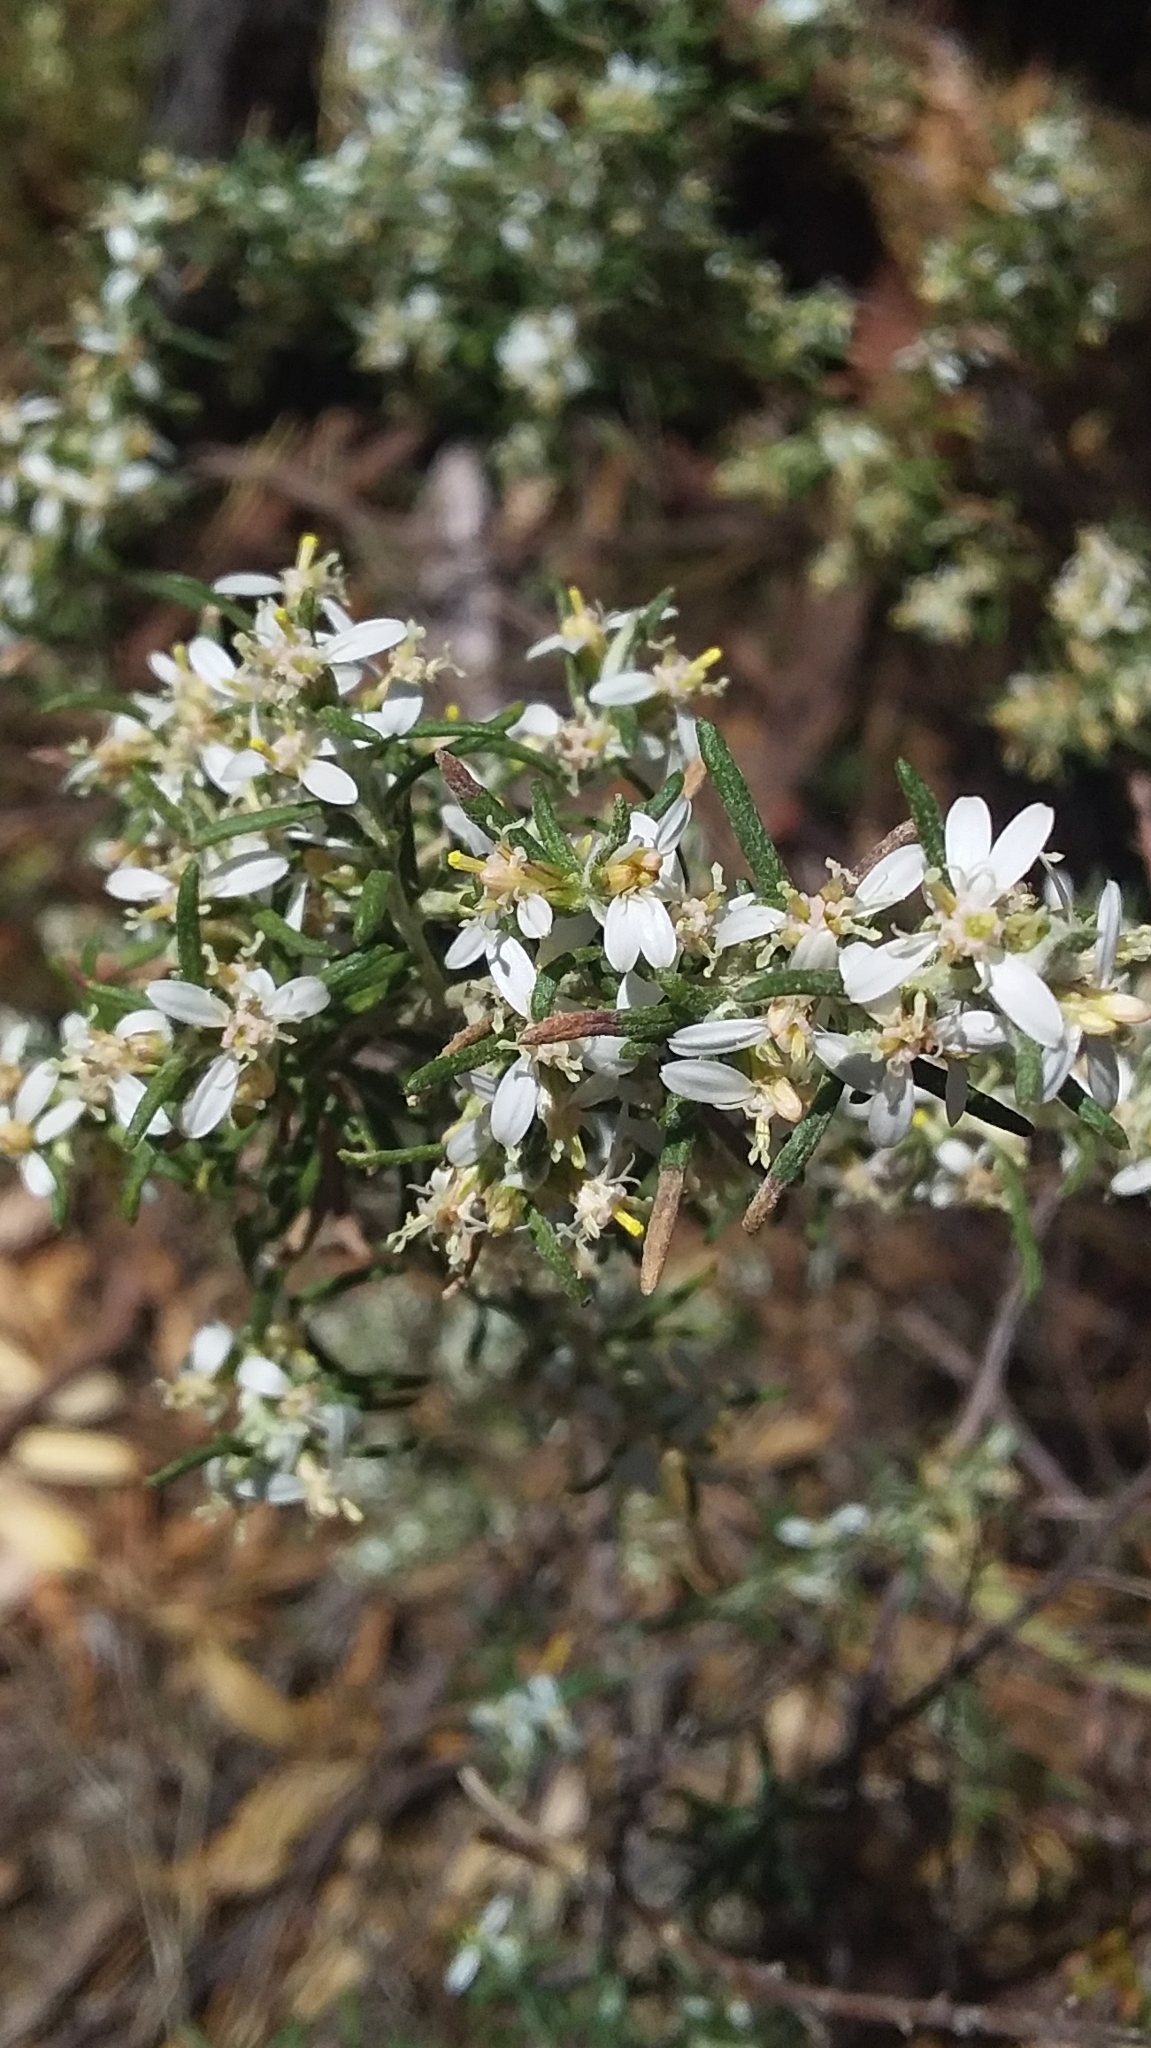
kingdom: Plantae
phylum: Tracheophyta
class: Magnoliopsida
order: Asterales
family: Asteraceae
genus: Olearia
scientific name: Olearia ramulosa
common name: Twiggy daisybush
